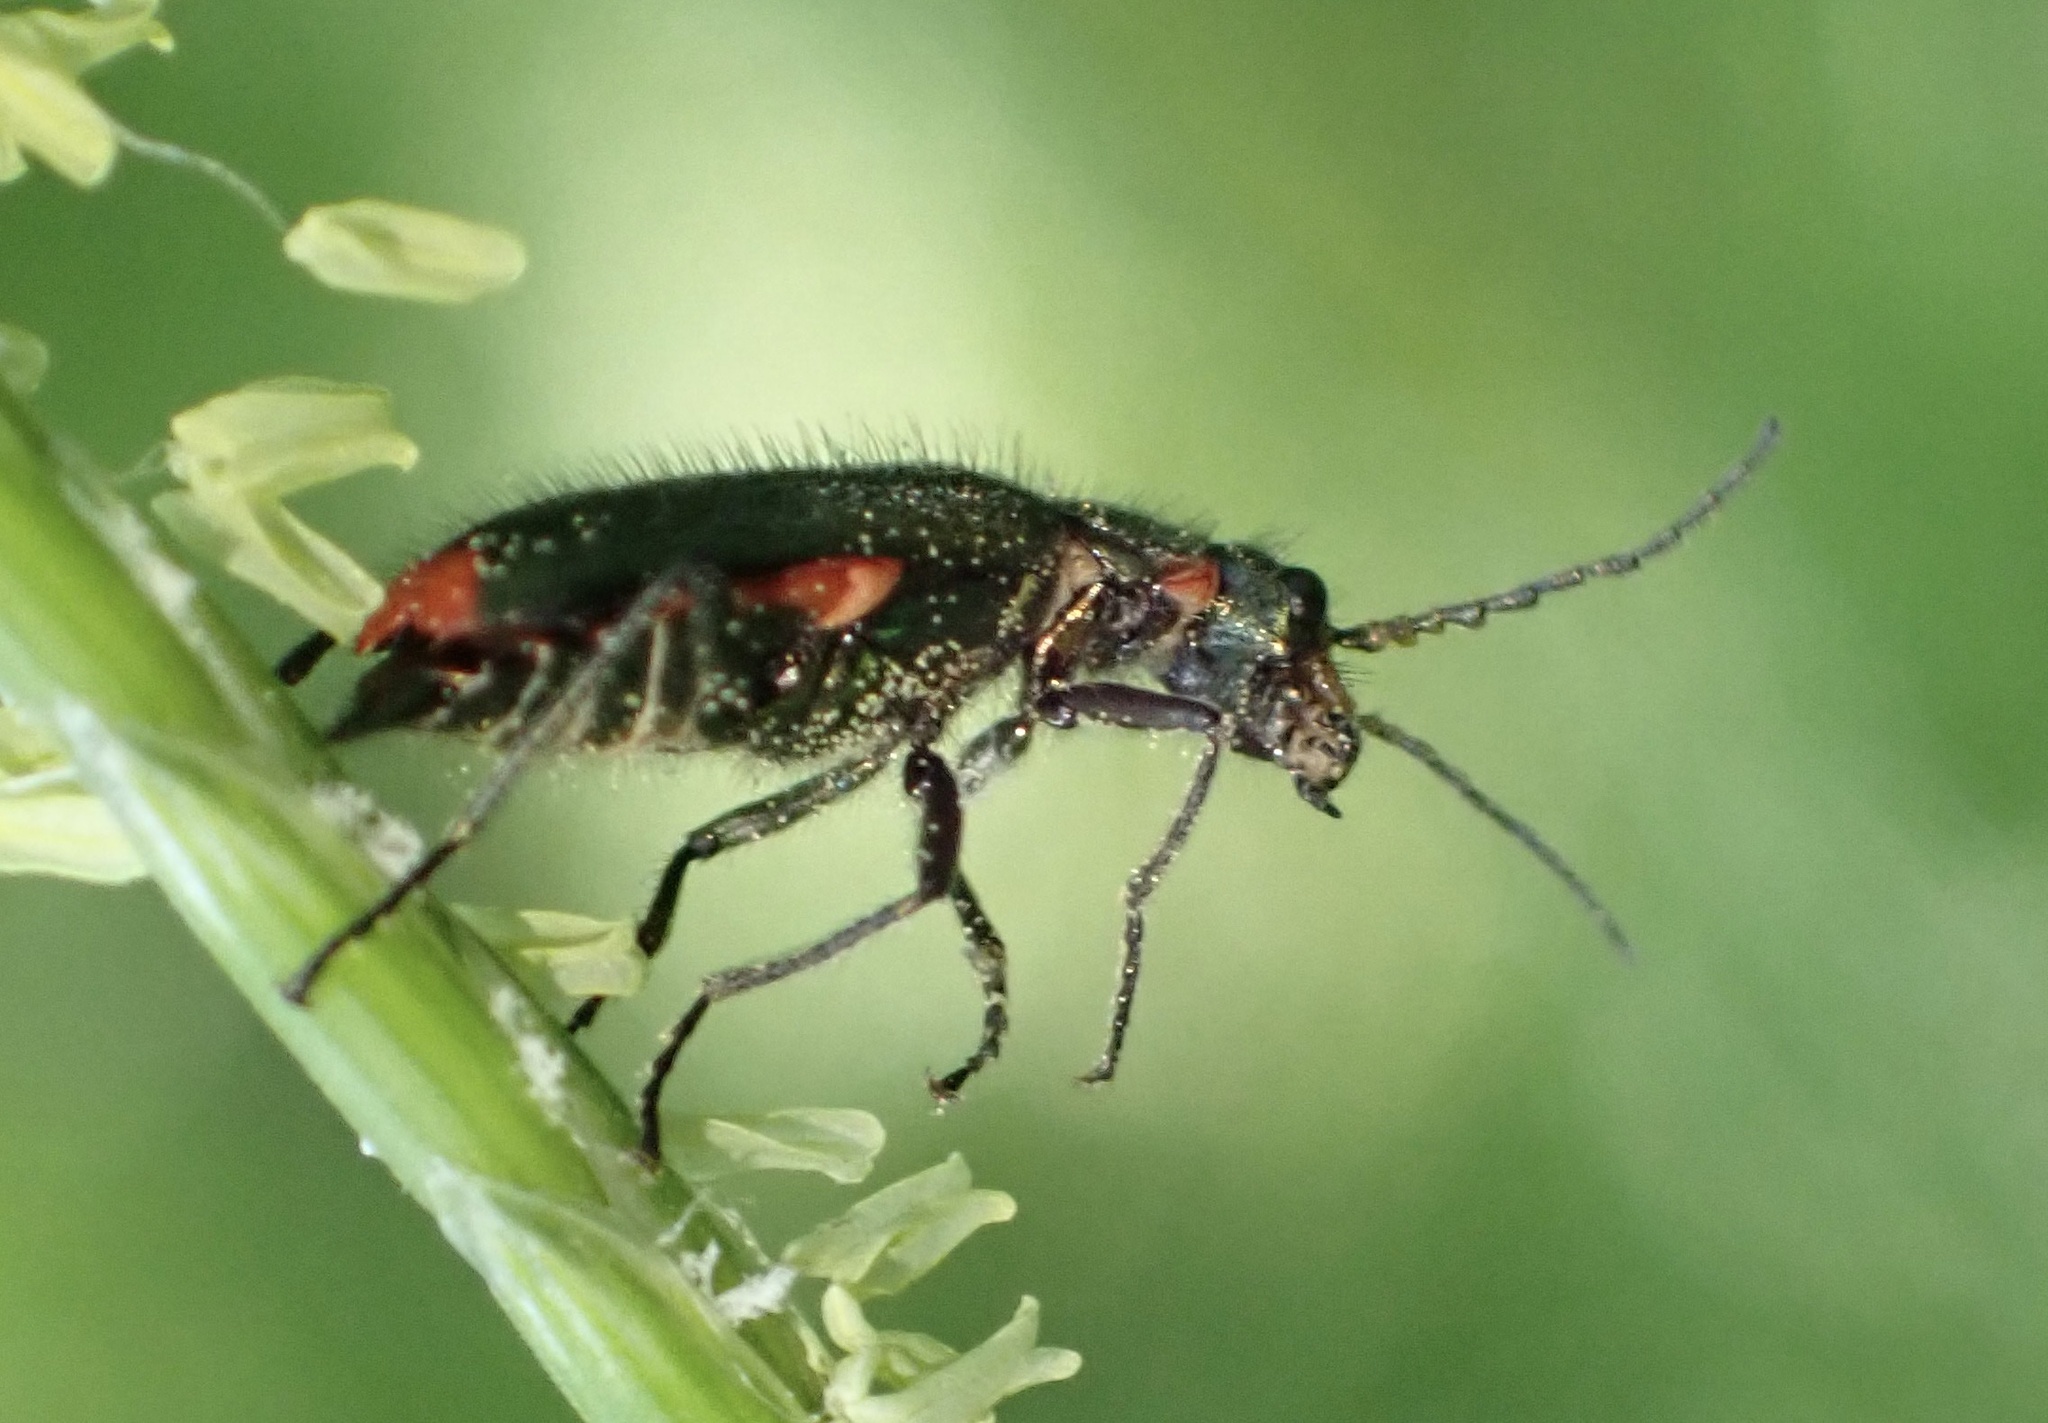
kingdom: Animalia
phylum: Arthropoda
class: Insecta
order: Coleoptera
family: Melyridae
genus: Malachius
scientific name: Malachius bipustulatus
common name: Malachite beetle
